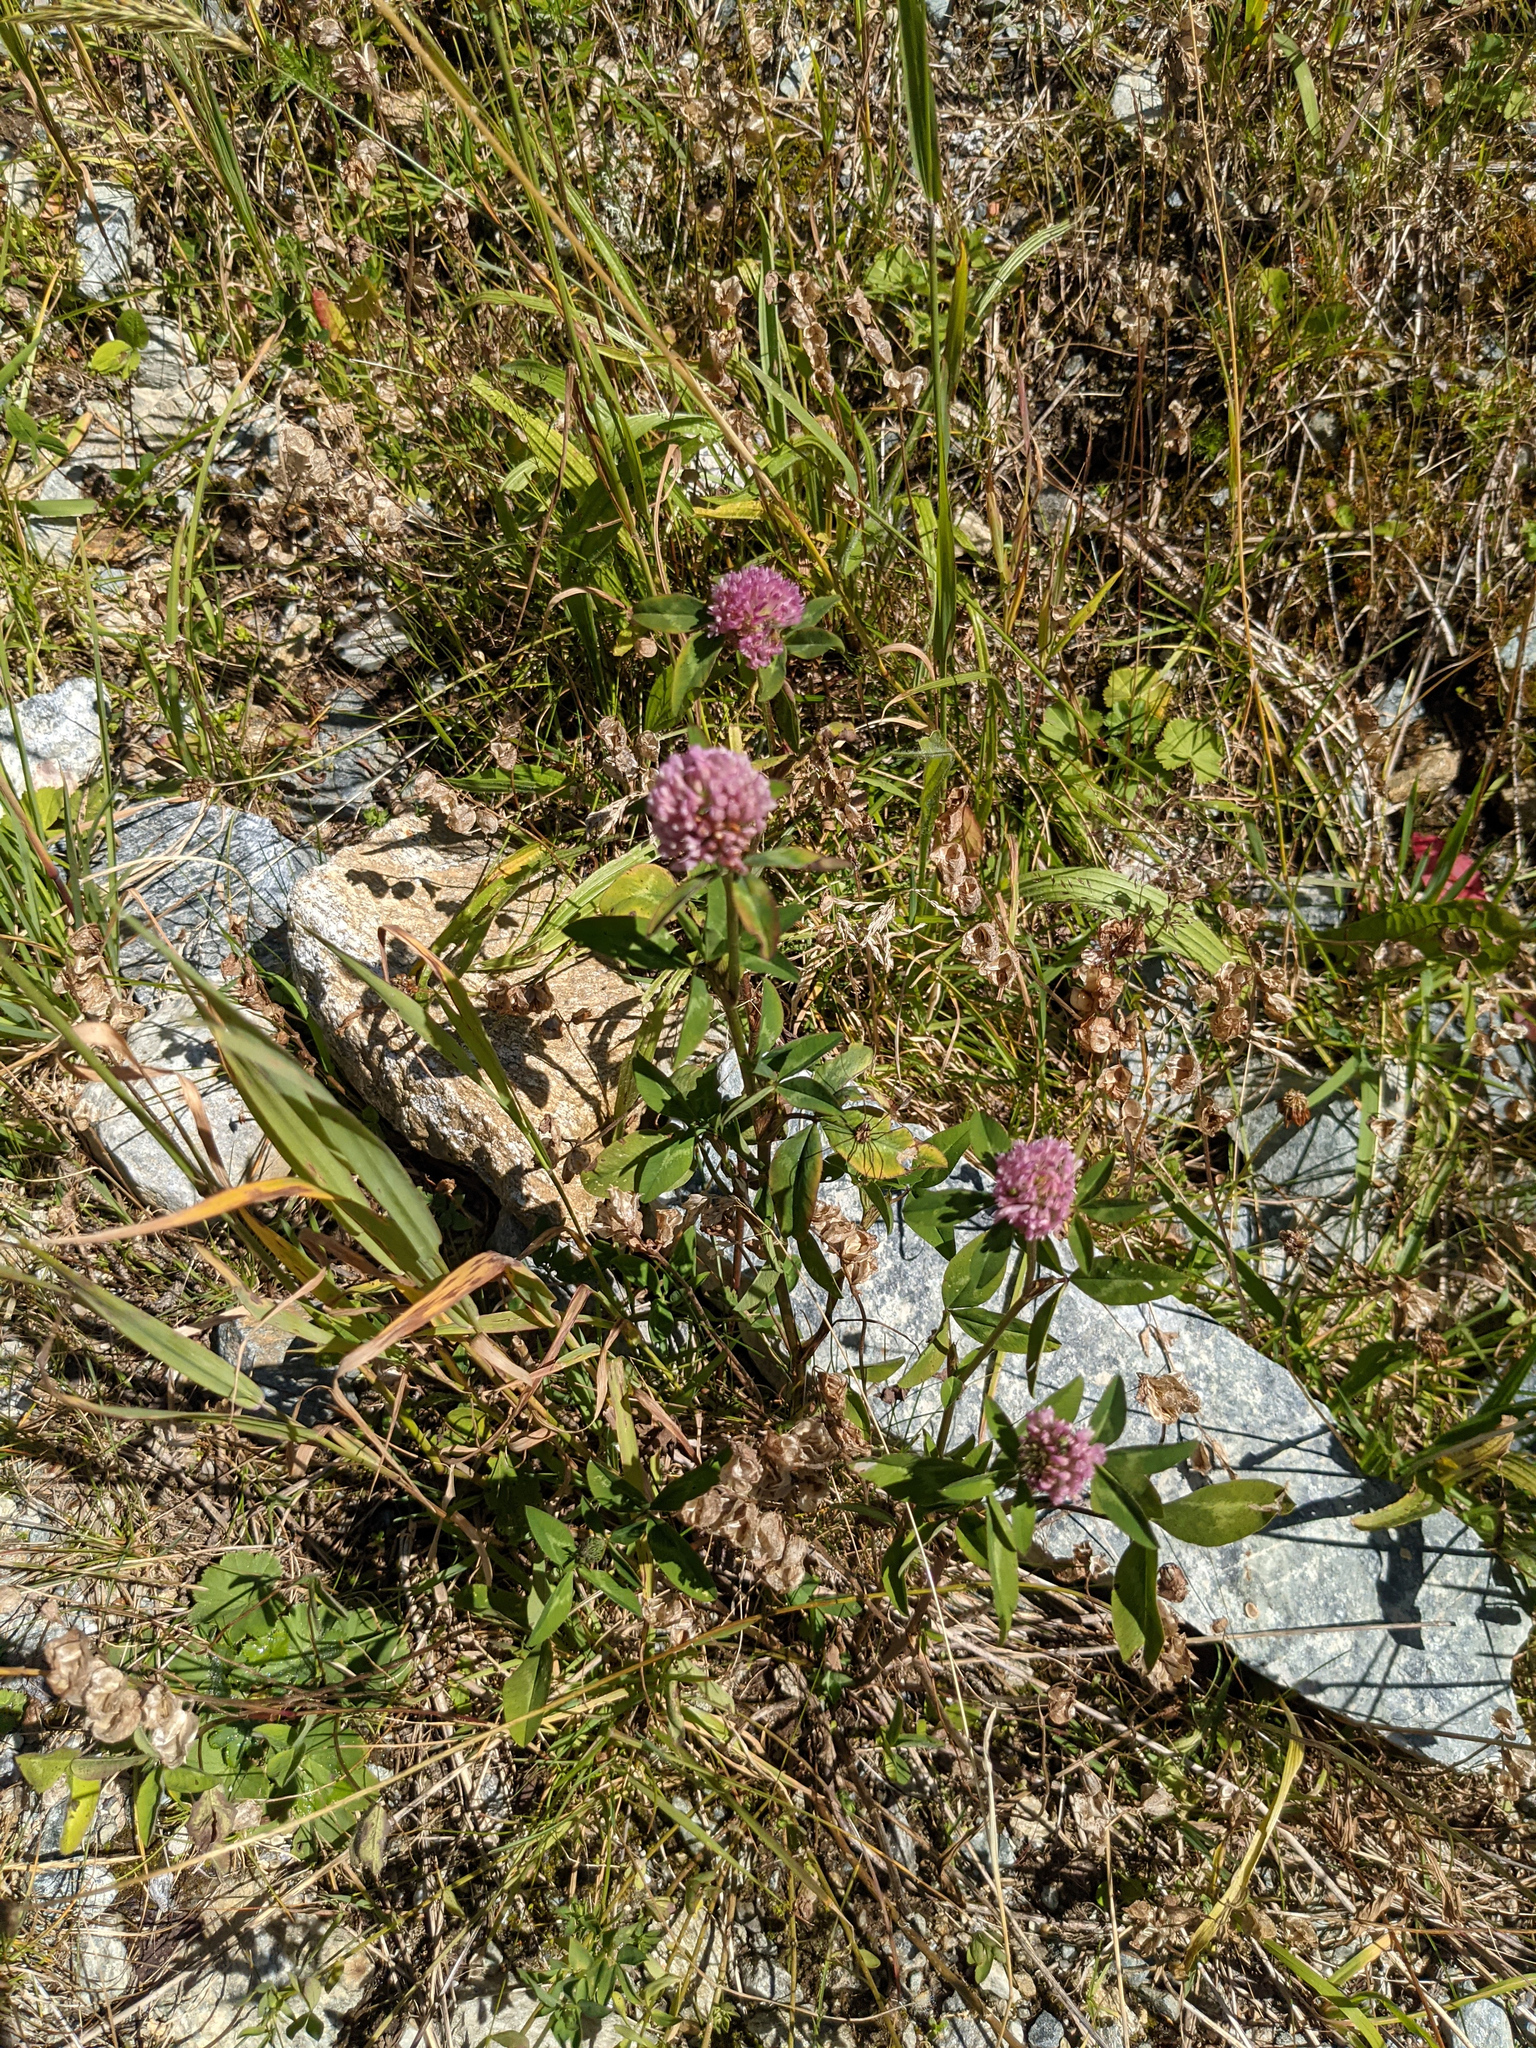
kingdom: Plantae
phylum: Tracheophyta
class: Magnoliopsida
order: Fabales
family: Fabaceae
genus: Trifolium
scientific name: Trifolium pratense
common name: Red clover
